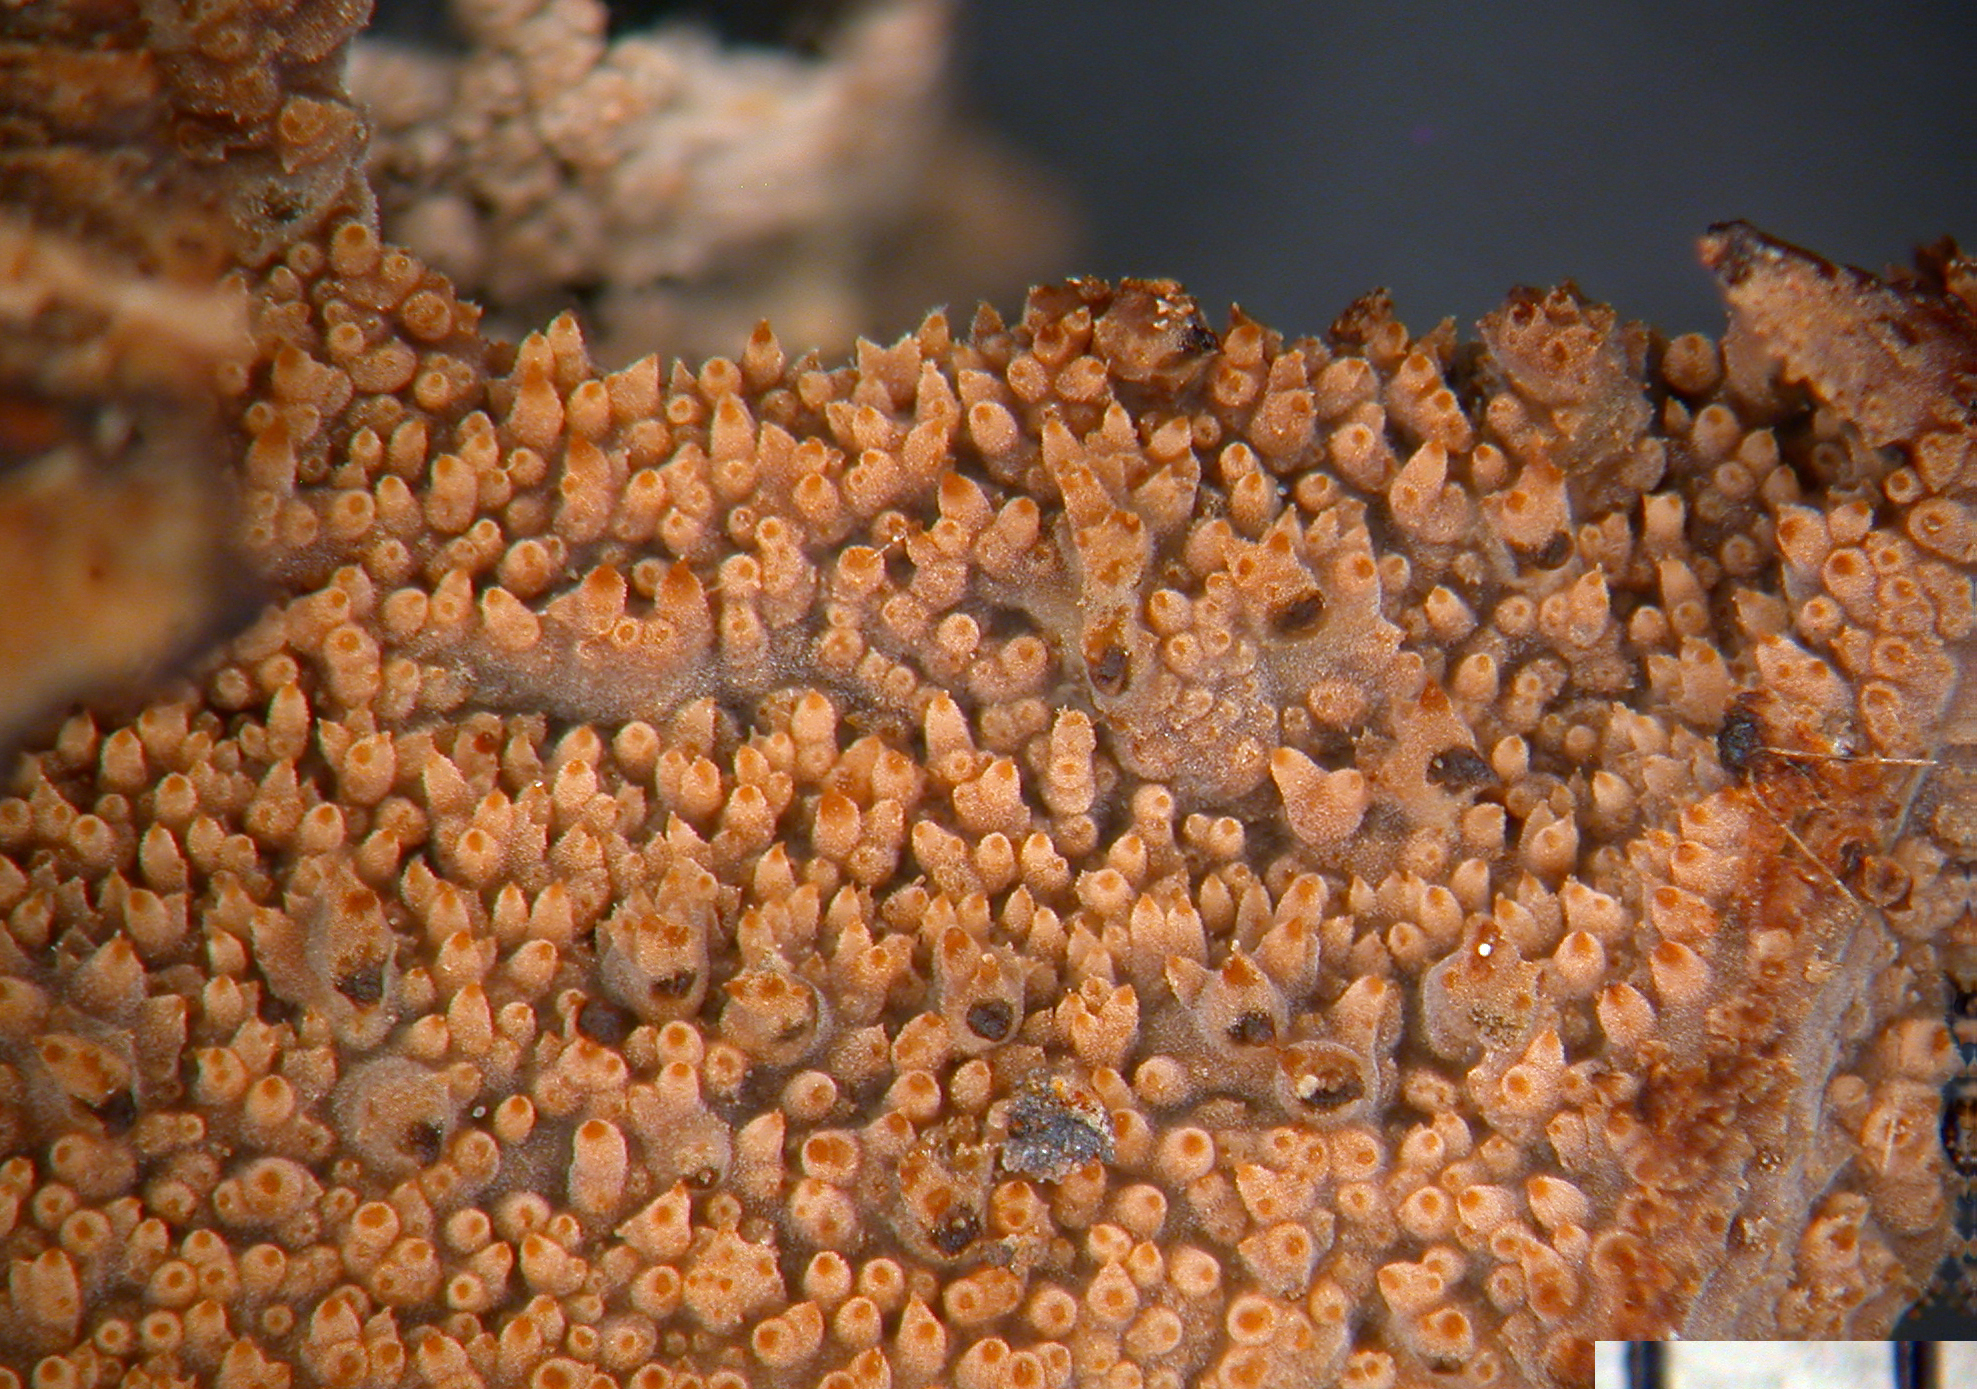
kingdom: Fungi
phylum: Basidiomycota
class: Agaricomycetes
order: Polyporales
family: Meruliaceae
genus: Phlebia
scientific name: Phlebia subfascicularis
